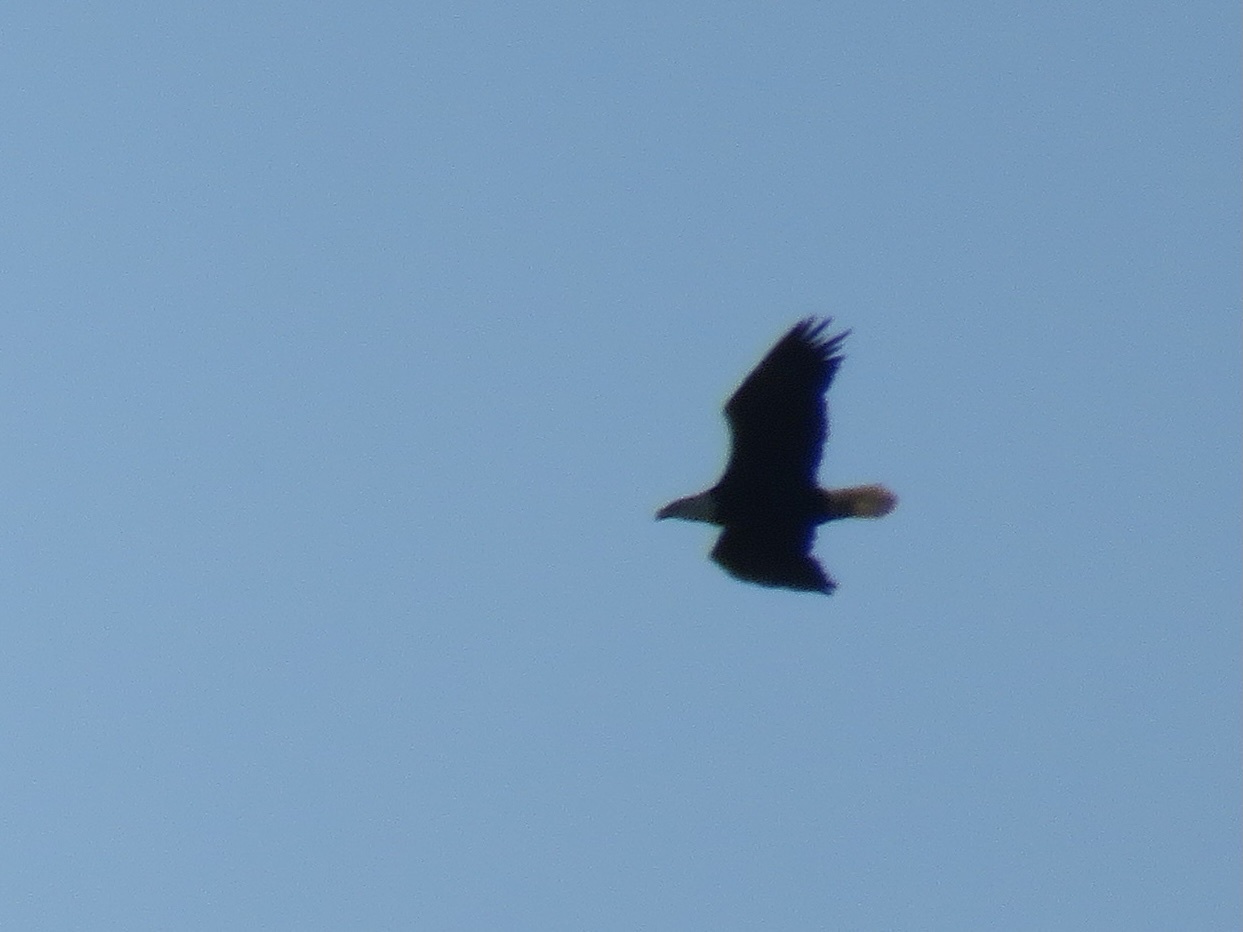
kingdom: Animalia
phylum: Chordata
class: Aves
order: Accipitriformes
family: Accipitridae
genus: Haliaeetus
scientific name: Haliaeetus leucocephalus
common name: Bald eagle
